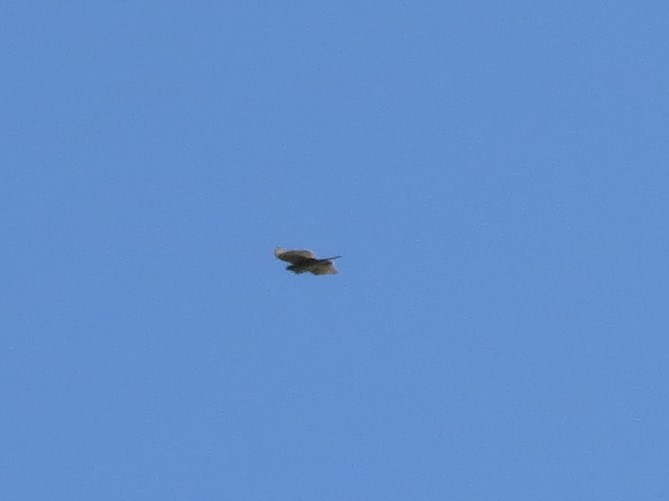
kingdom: Animalia
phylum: Chordata
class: Aves
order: Accipitriformes
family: Accipitridae
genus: Accipiter
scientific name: Accipiter striatus
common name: Sharp-shinned hawk
